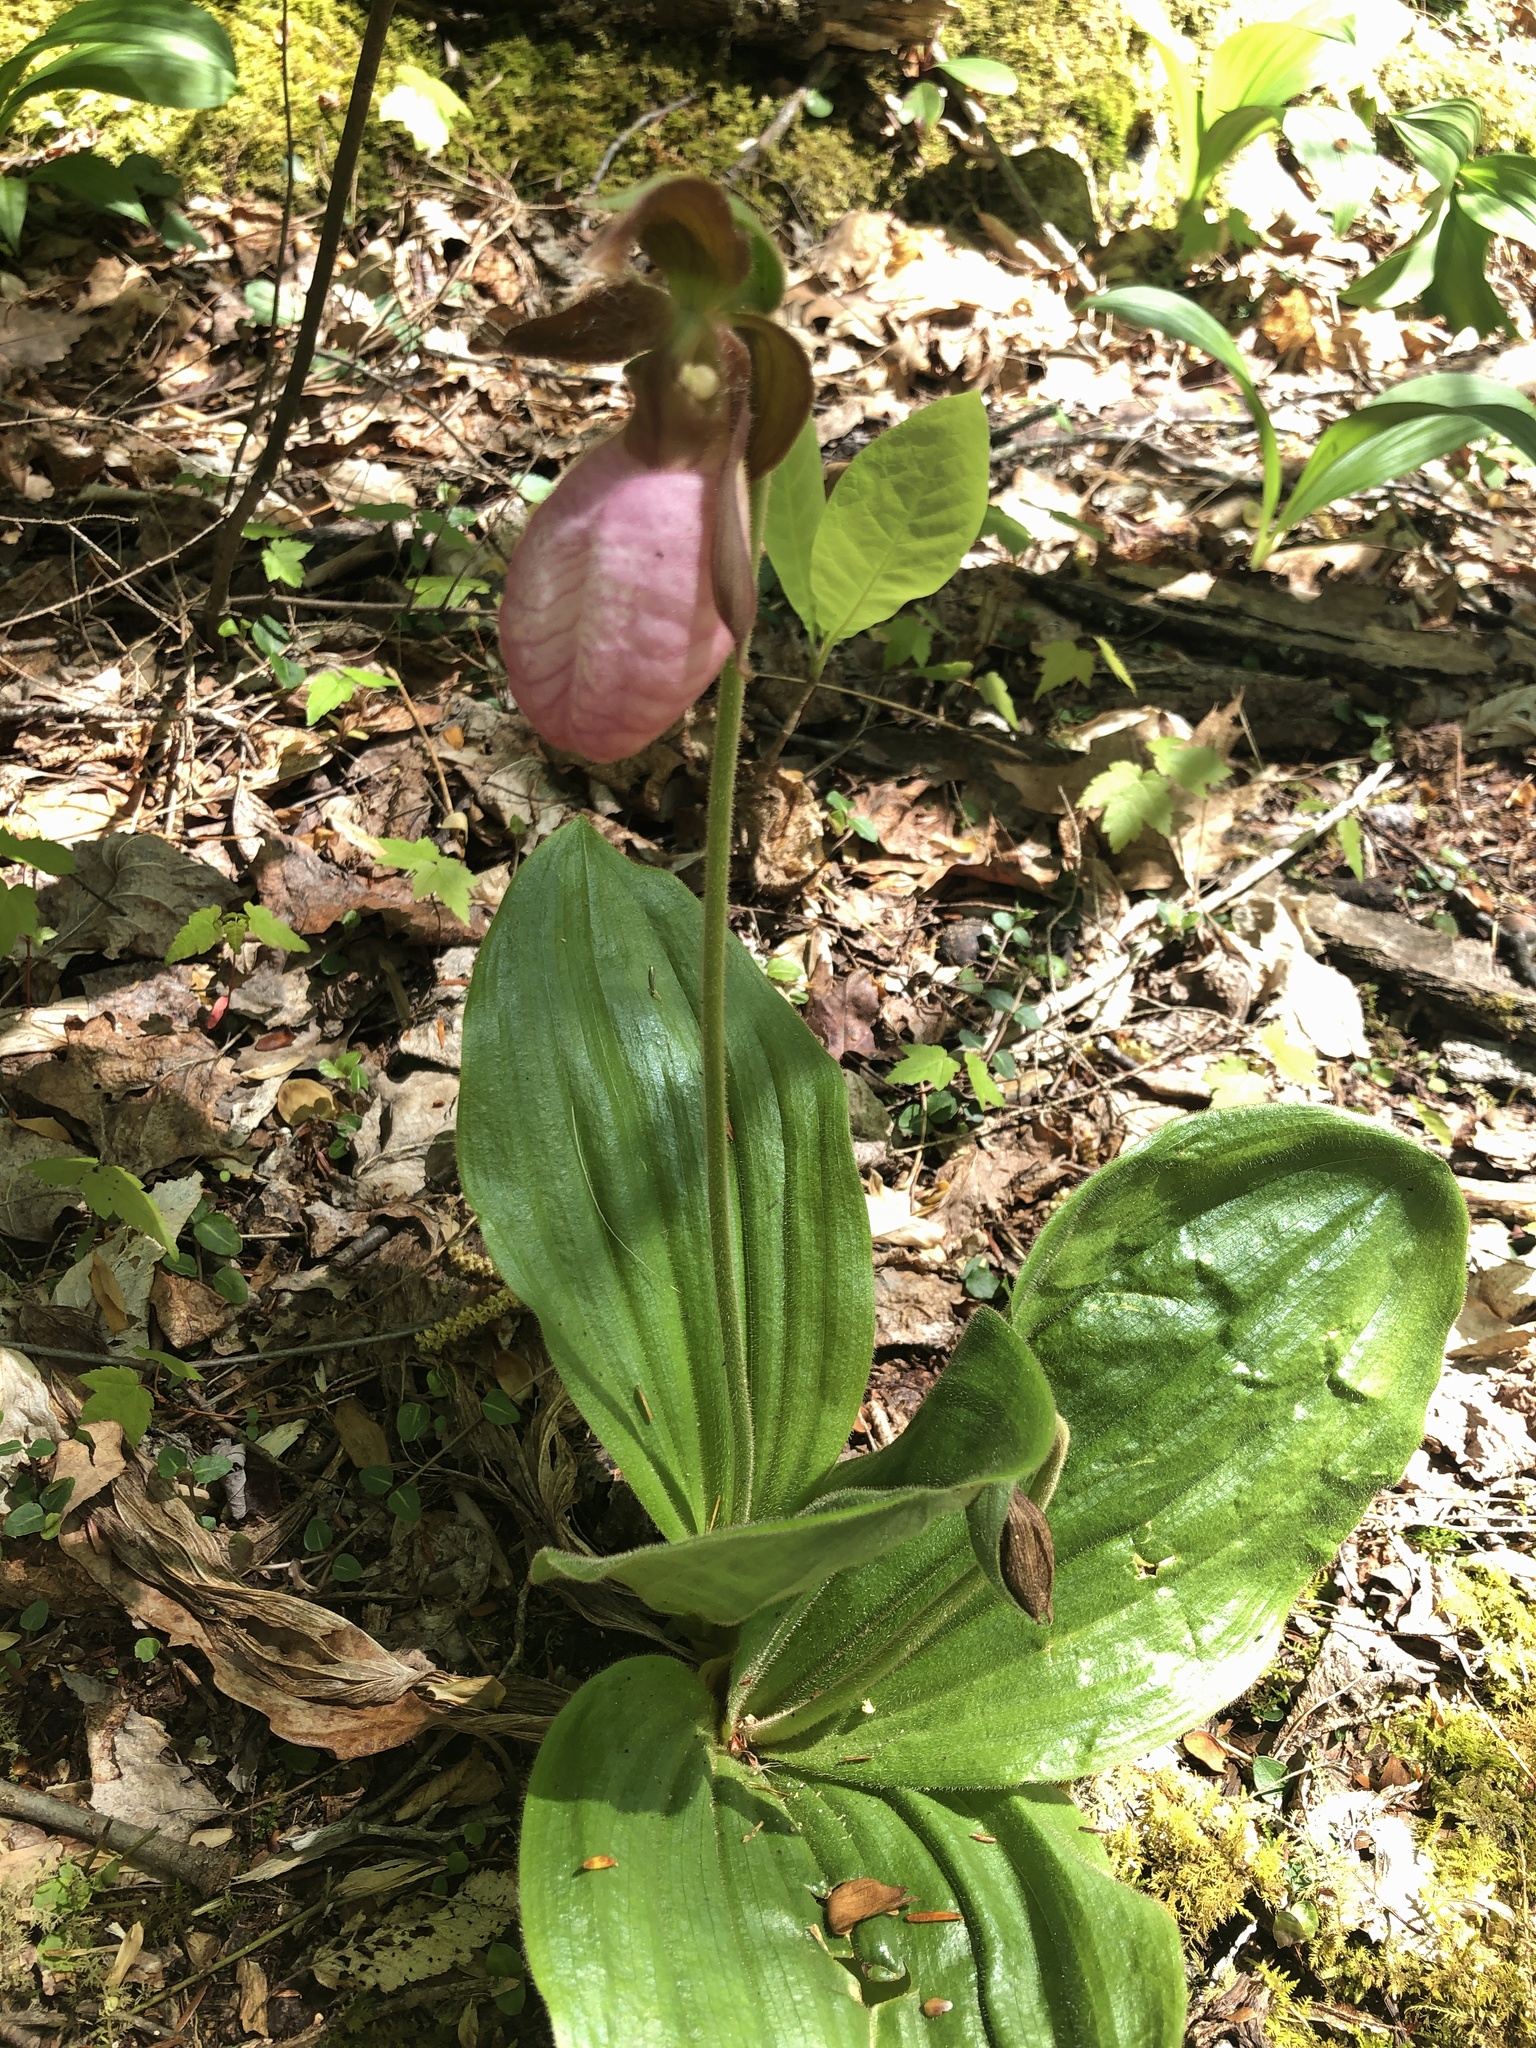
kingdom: Plantae
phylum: Tracheophyta
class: Liliopsida
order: Asparagales
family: Orchidaceae
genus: Cypripedium
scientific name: Cypripedium acaule
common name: Pink lady's-slipper
